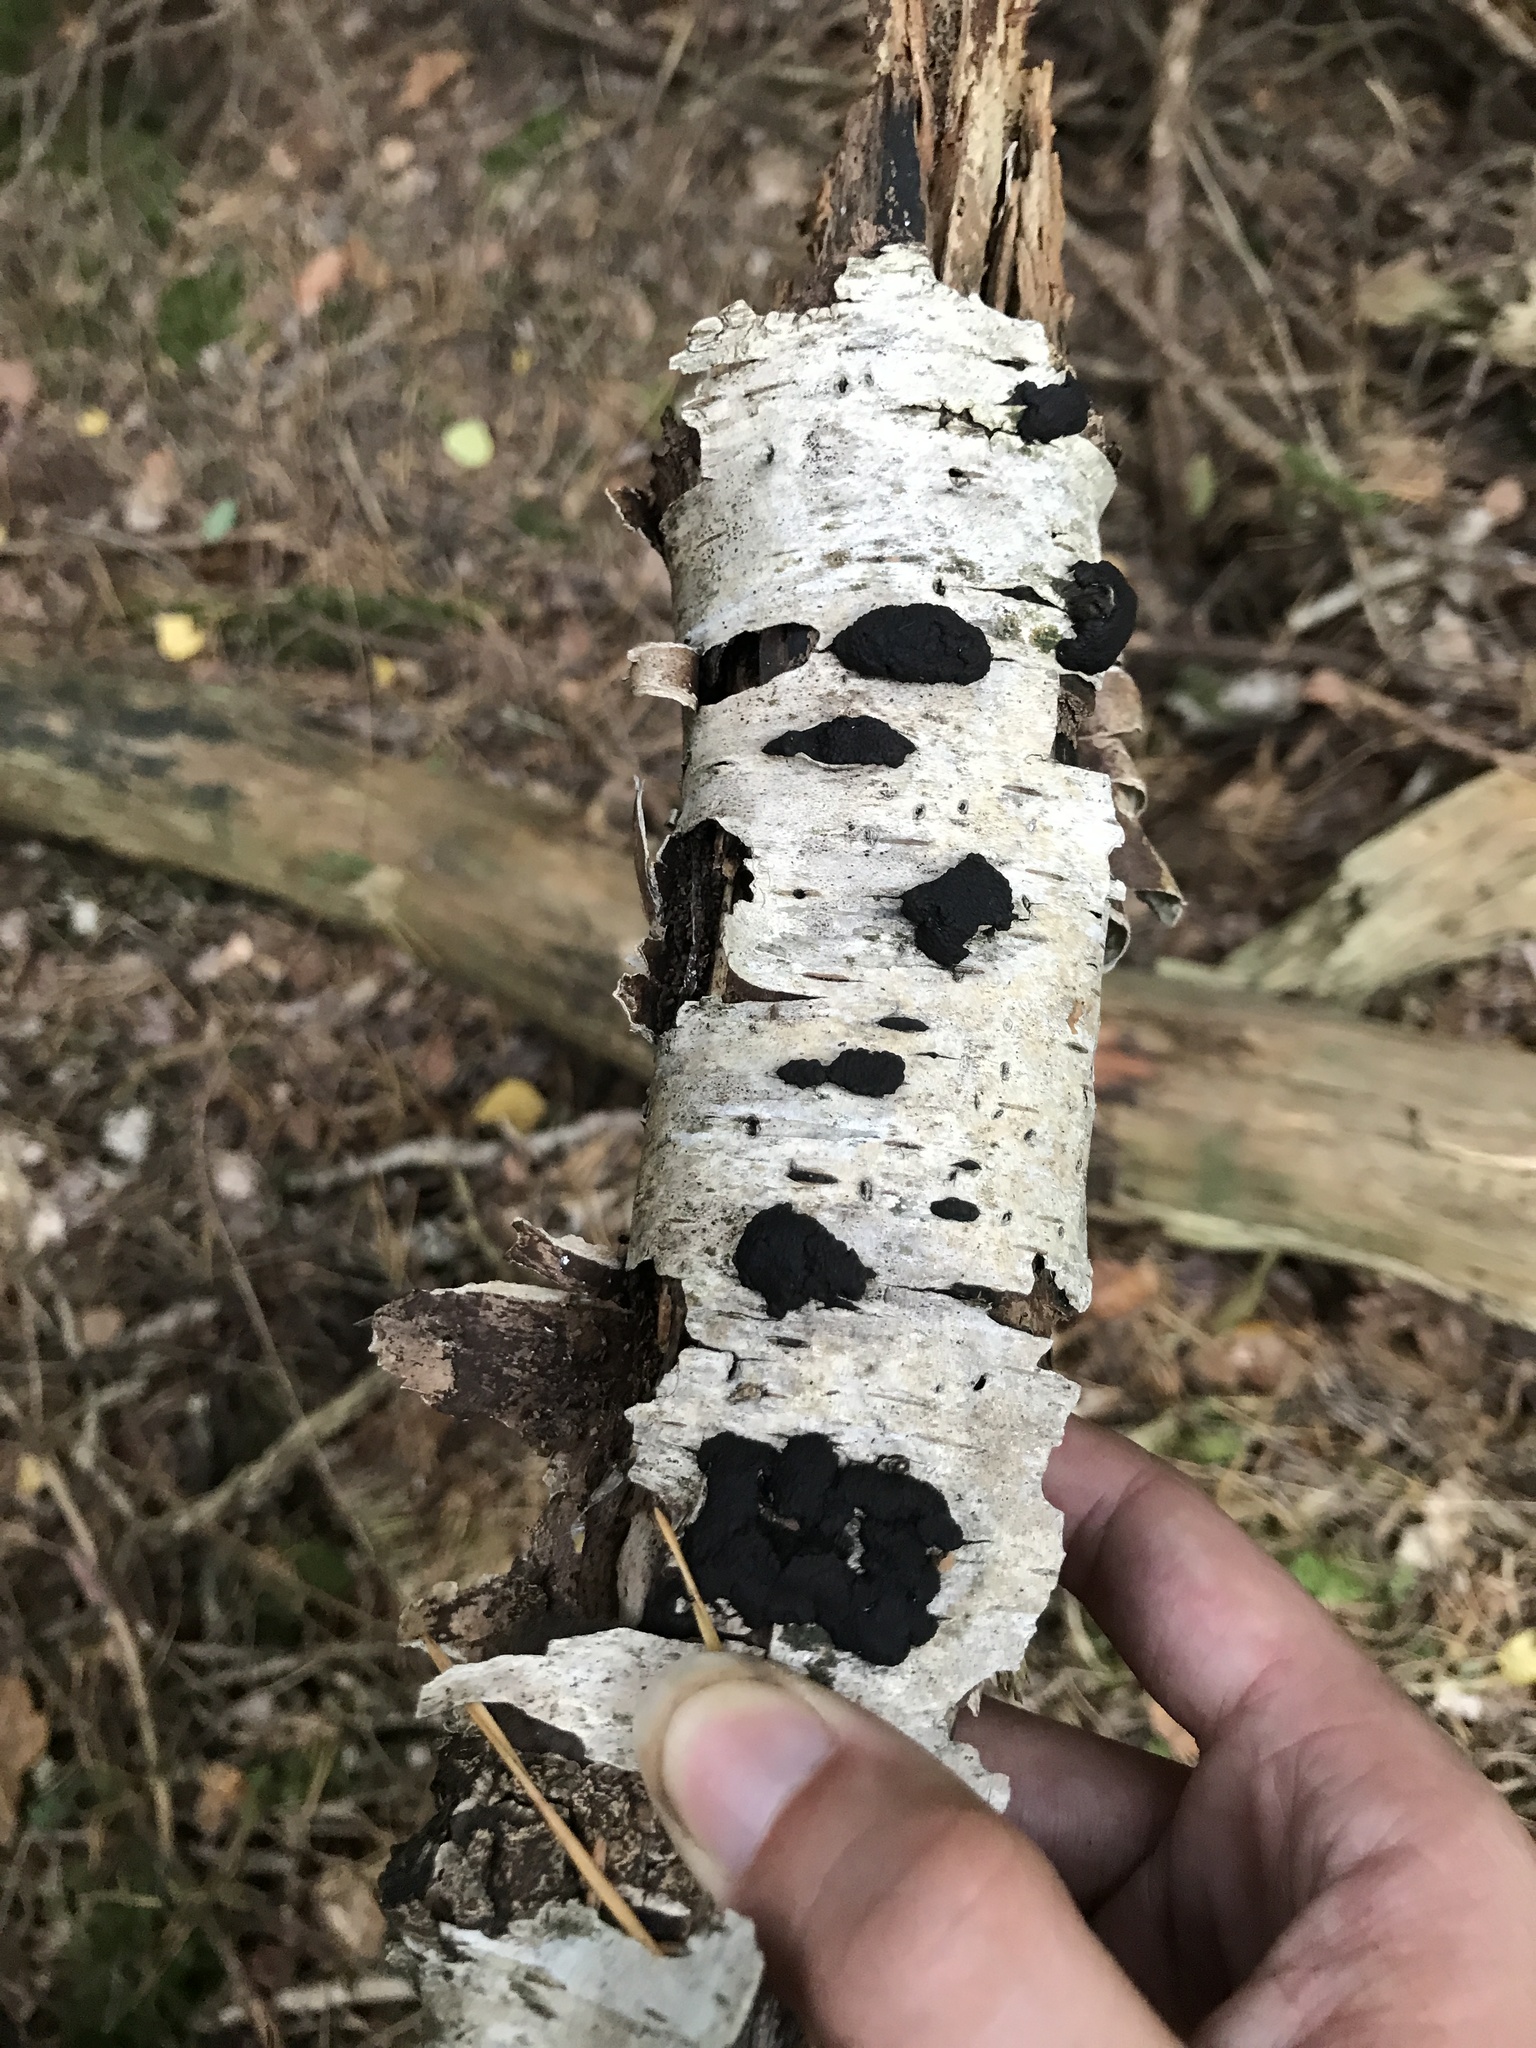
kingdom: Fungi
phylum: Ascomycota
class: Sordariomycetes
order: Xylariales
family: Hypoxylaceae
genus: Jackrogersella
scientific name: Jackrogersella multiformis
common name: Birch woodwart
